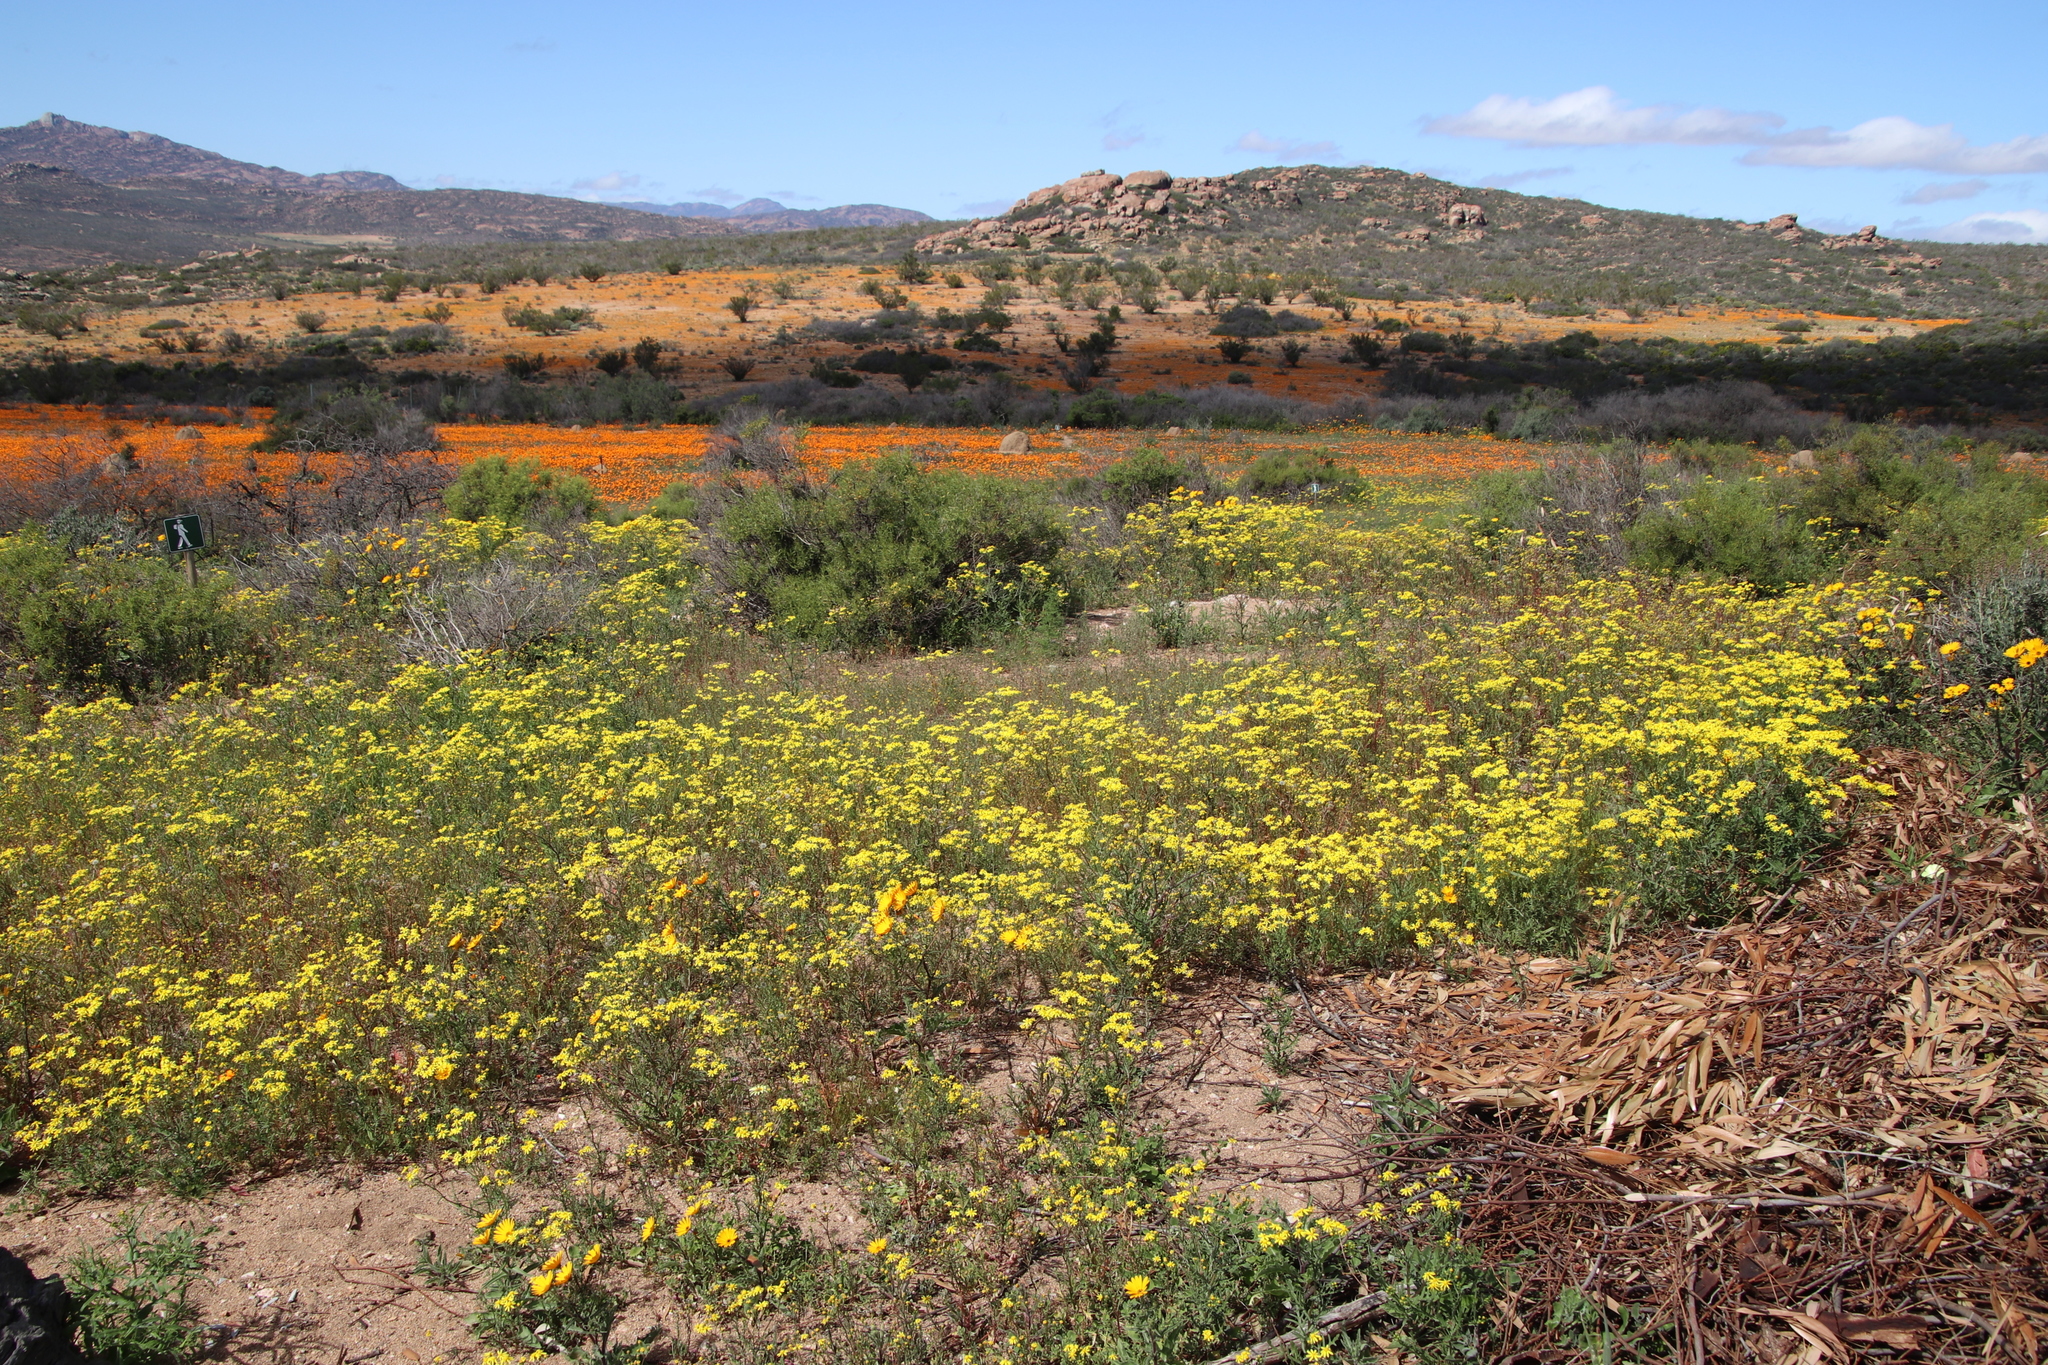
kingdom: Plantae
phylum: Tracheophyta
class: Magnoliopsida
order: Asterales
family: Asteraceae
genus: Senecio
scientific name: Senecio abruptus
